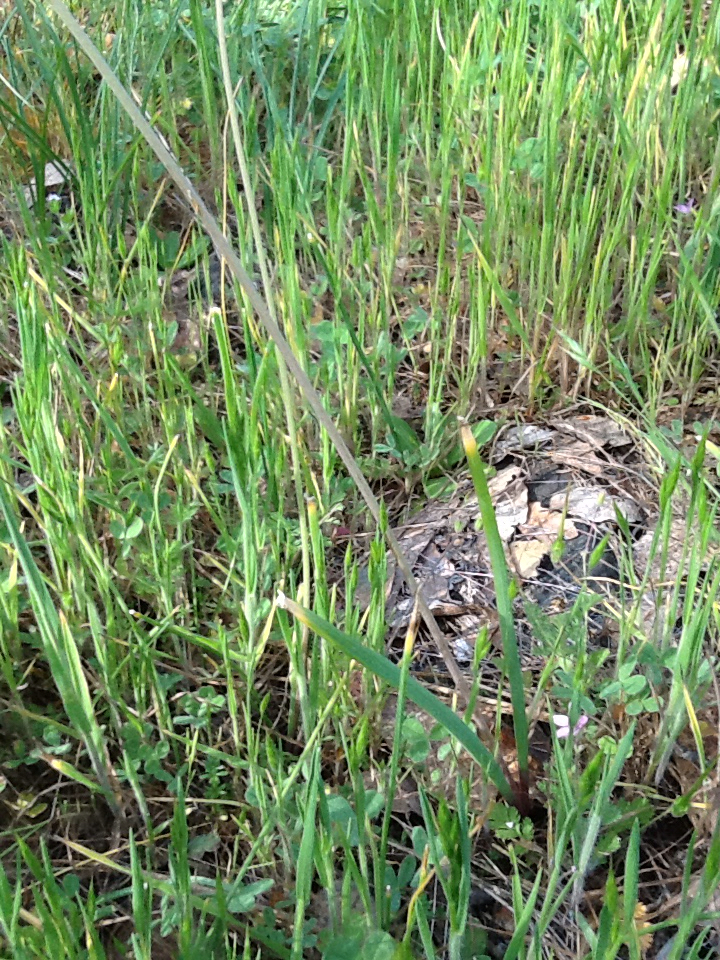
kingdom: Plantae
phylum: Tracheophyta
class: Liliopsida
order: Asparagales
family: Asparagaceae
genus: Dipterostemon
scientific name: Dipterostemon capitatus
